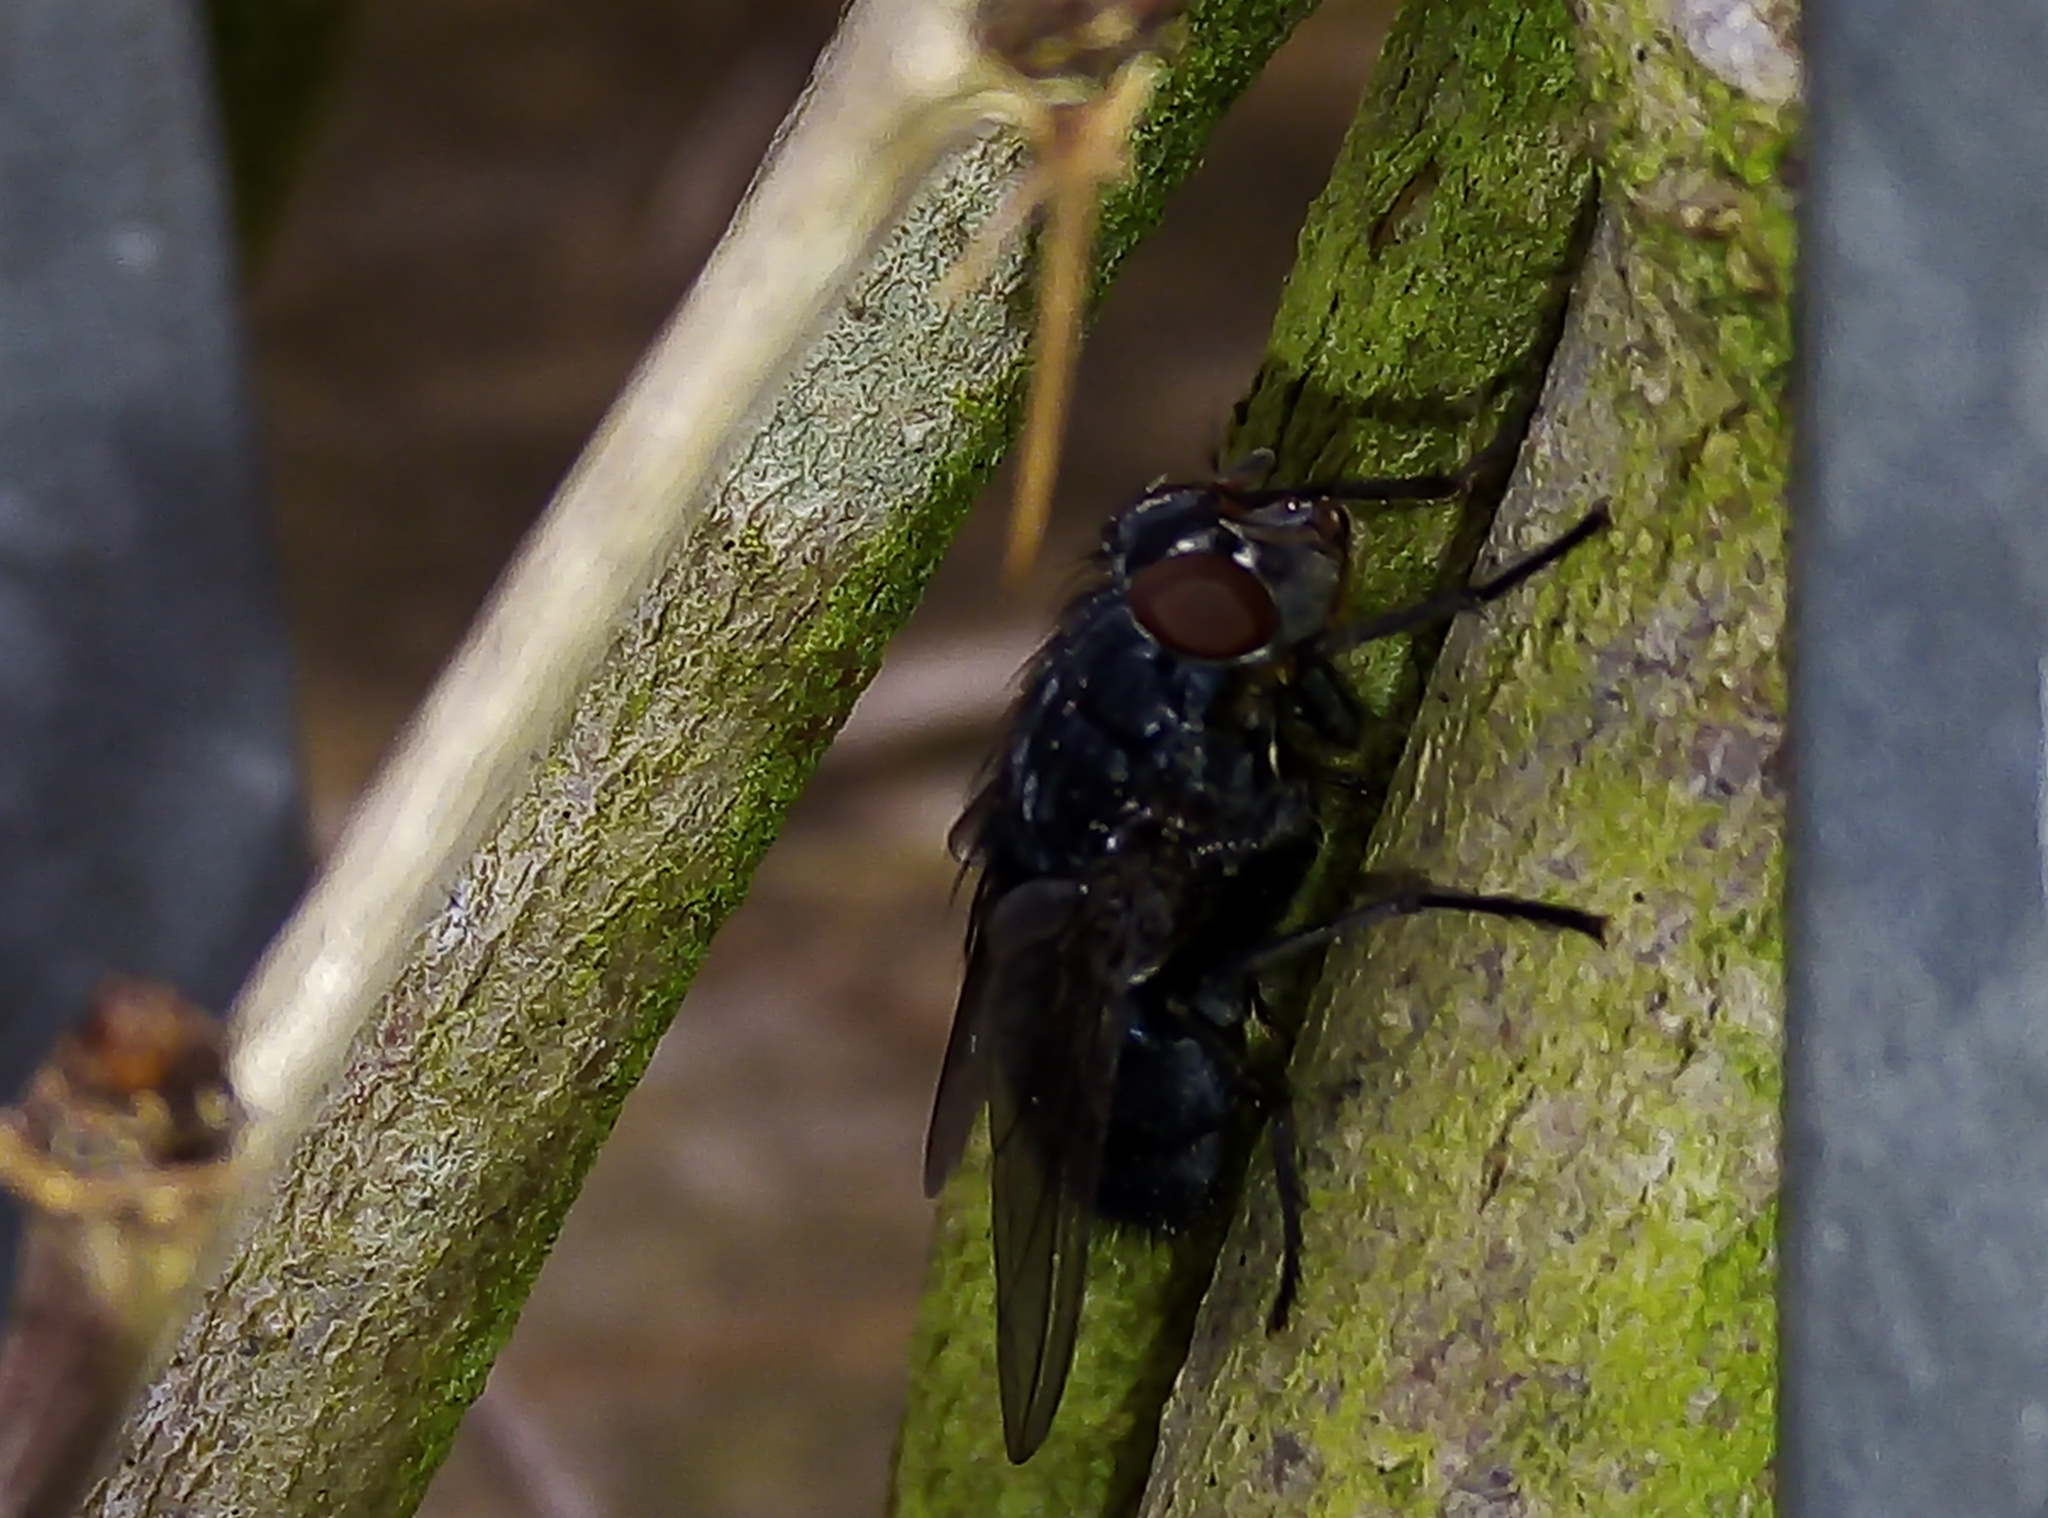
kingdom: Animalia
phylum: Arthropoda
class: Insecta
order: Diptera
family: Calliphoridae
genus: Calliphora
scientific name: Calliphora vomitoria
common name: Blue bottle fly
